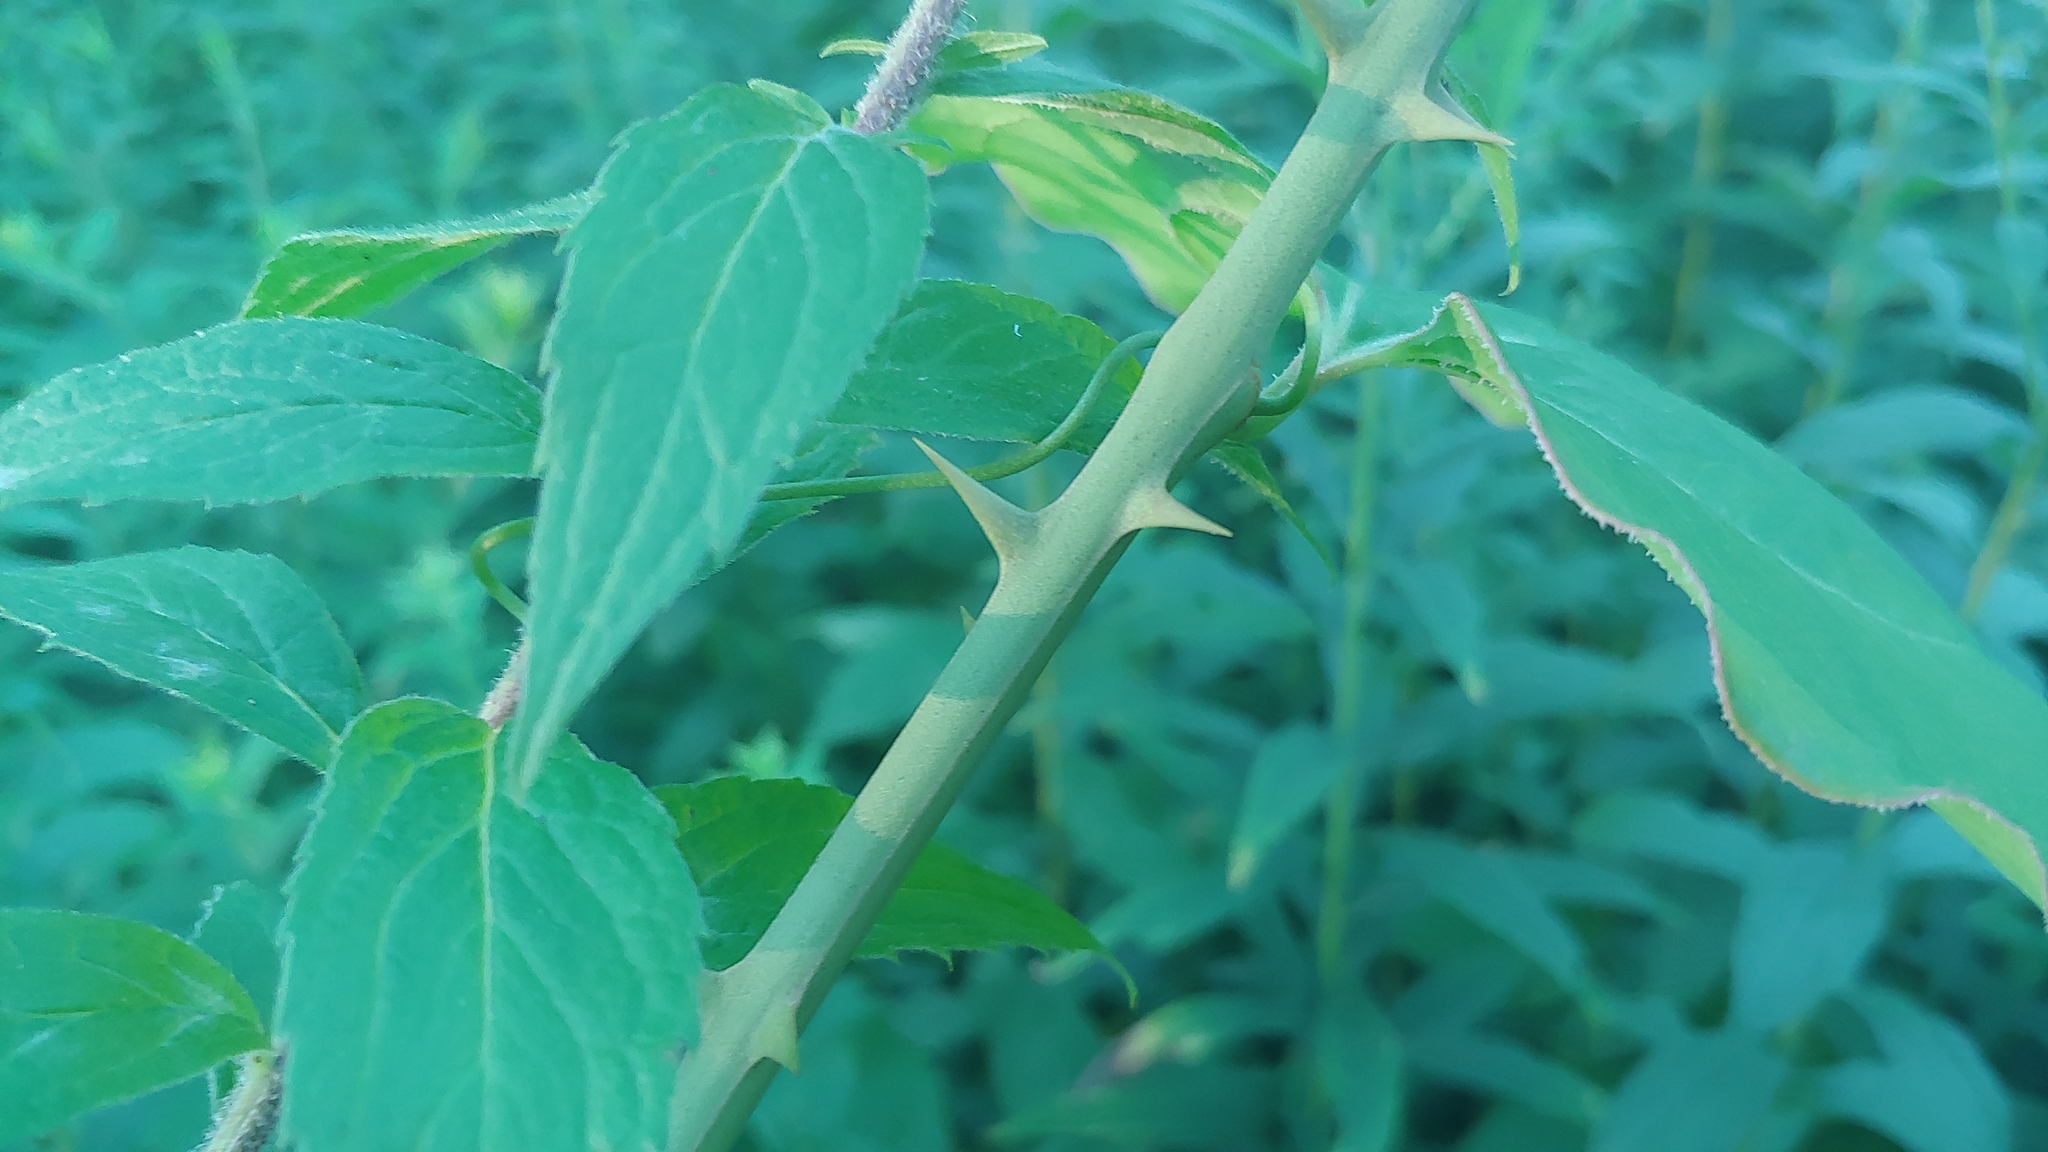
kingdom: Plantae
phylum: Tracheophyta
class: Liliopsida
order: Liliales
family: Smilacaceae
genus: Smilax
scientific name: Smilax rotundifolia
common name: Bullbriar
